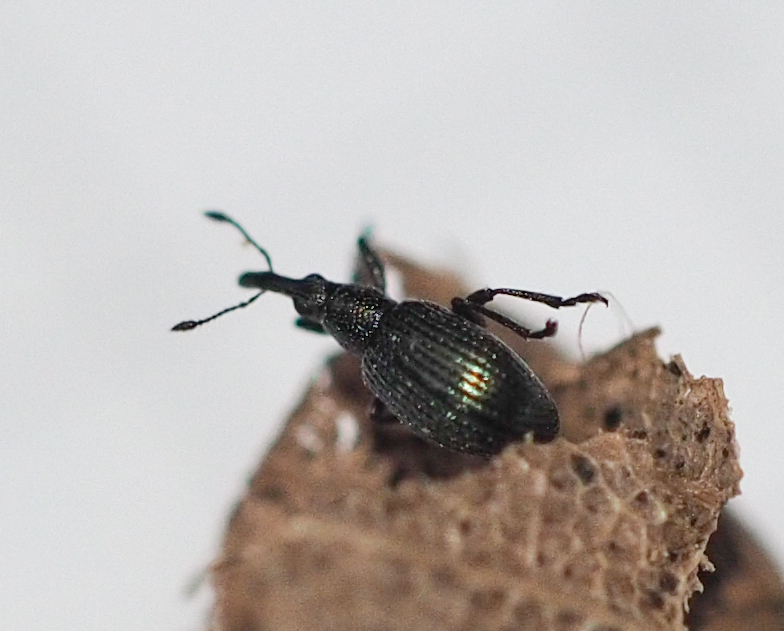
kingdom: Animalia
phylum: Arthropoda
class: Insecta
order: Coleoptera
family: Apionidae
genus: Ischnopterapion
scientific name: Ischnopterapion virens
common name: White clover weevil
